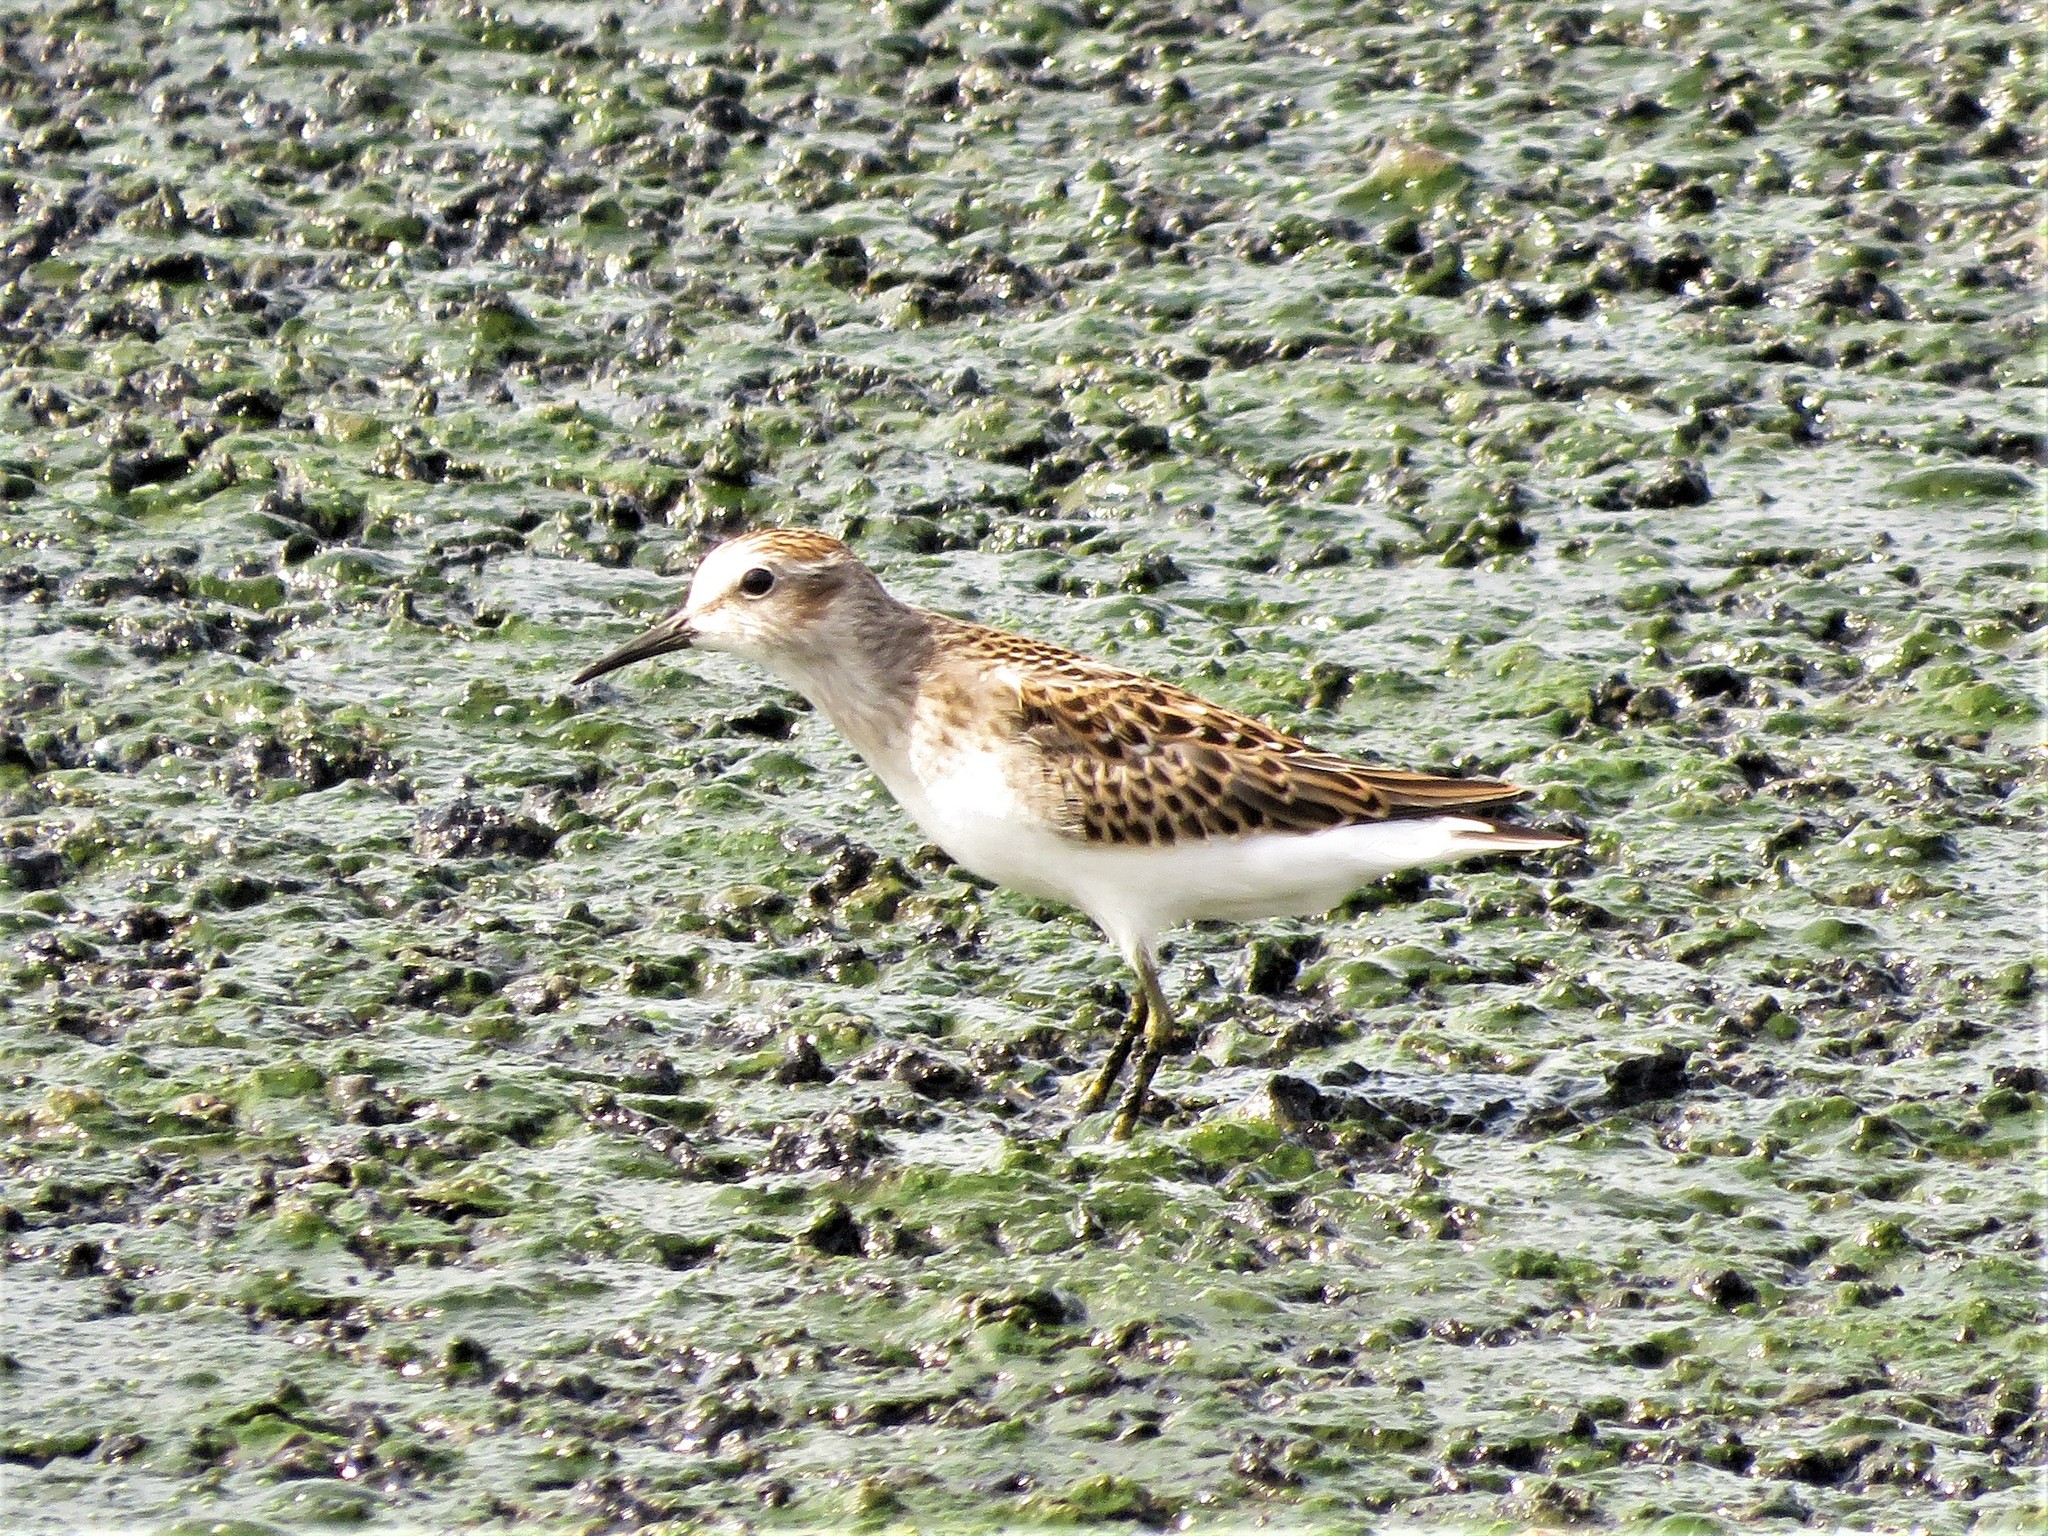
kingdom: Animalia
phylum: Chordata
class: Aves
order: Charadriiformes
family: Scolopacidae
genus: Calidris
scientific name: Calidris minutilla
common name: Least sandpiper
